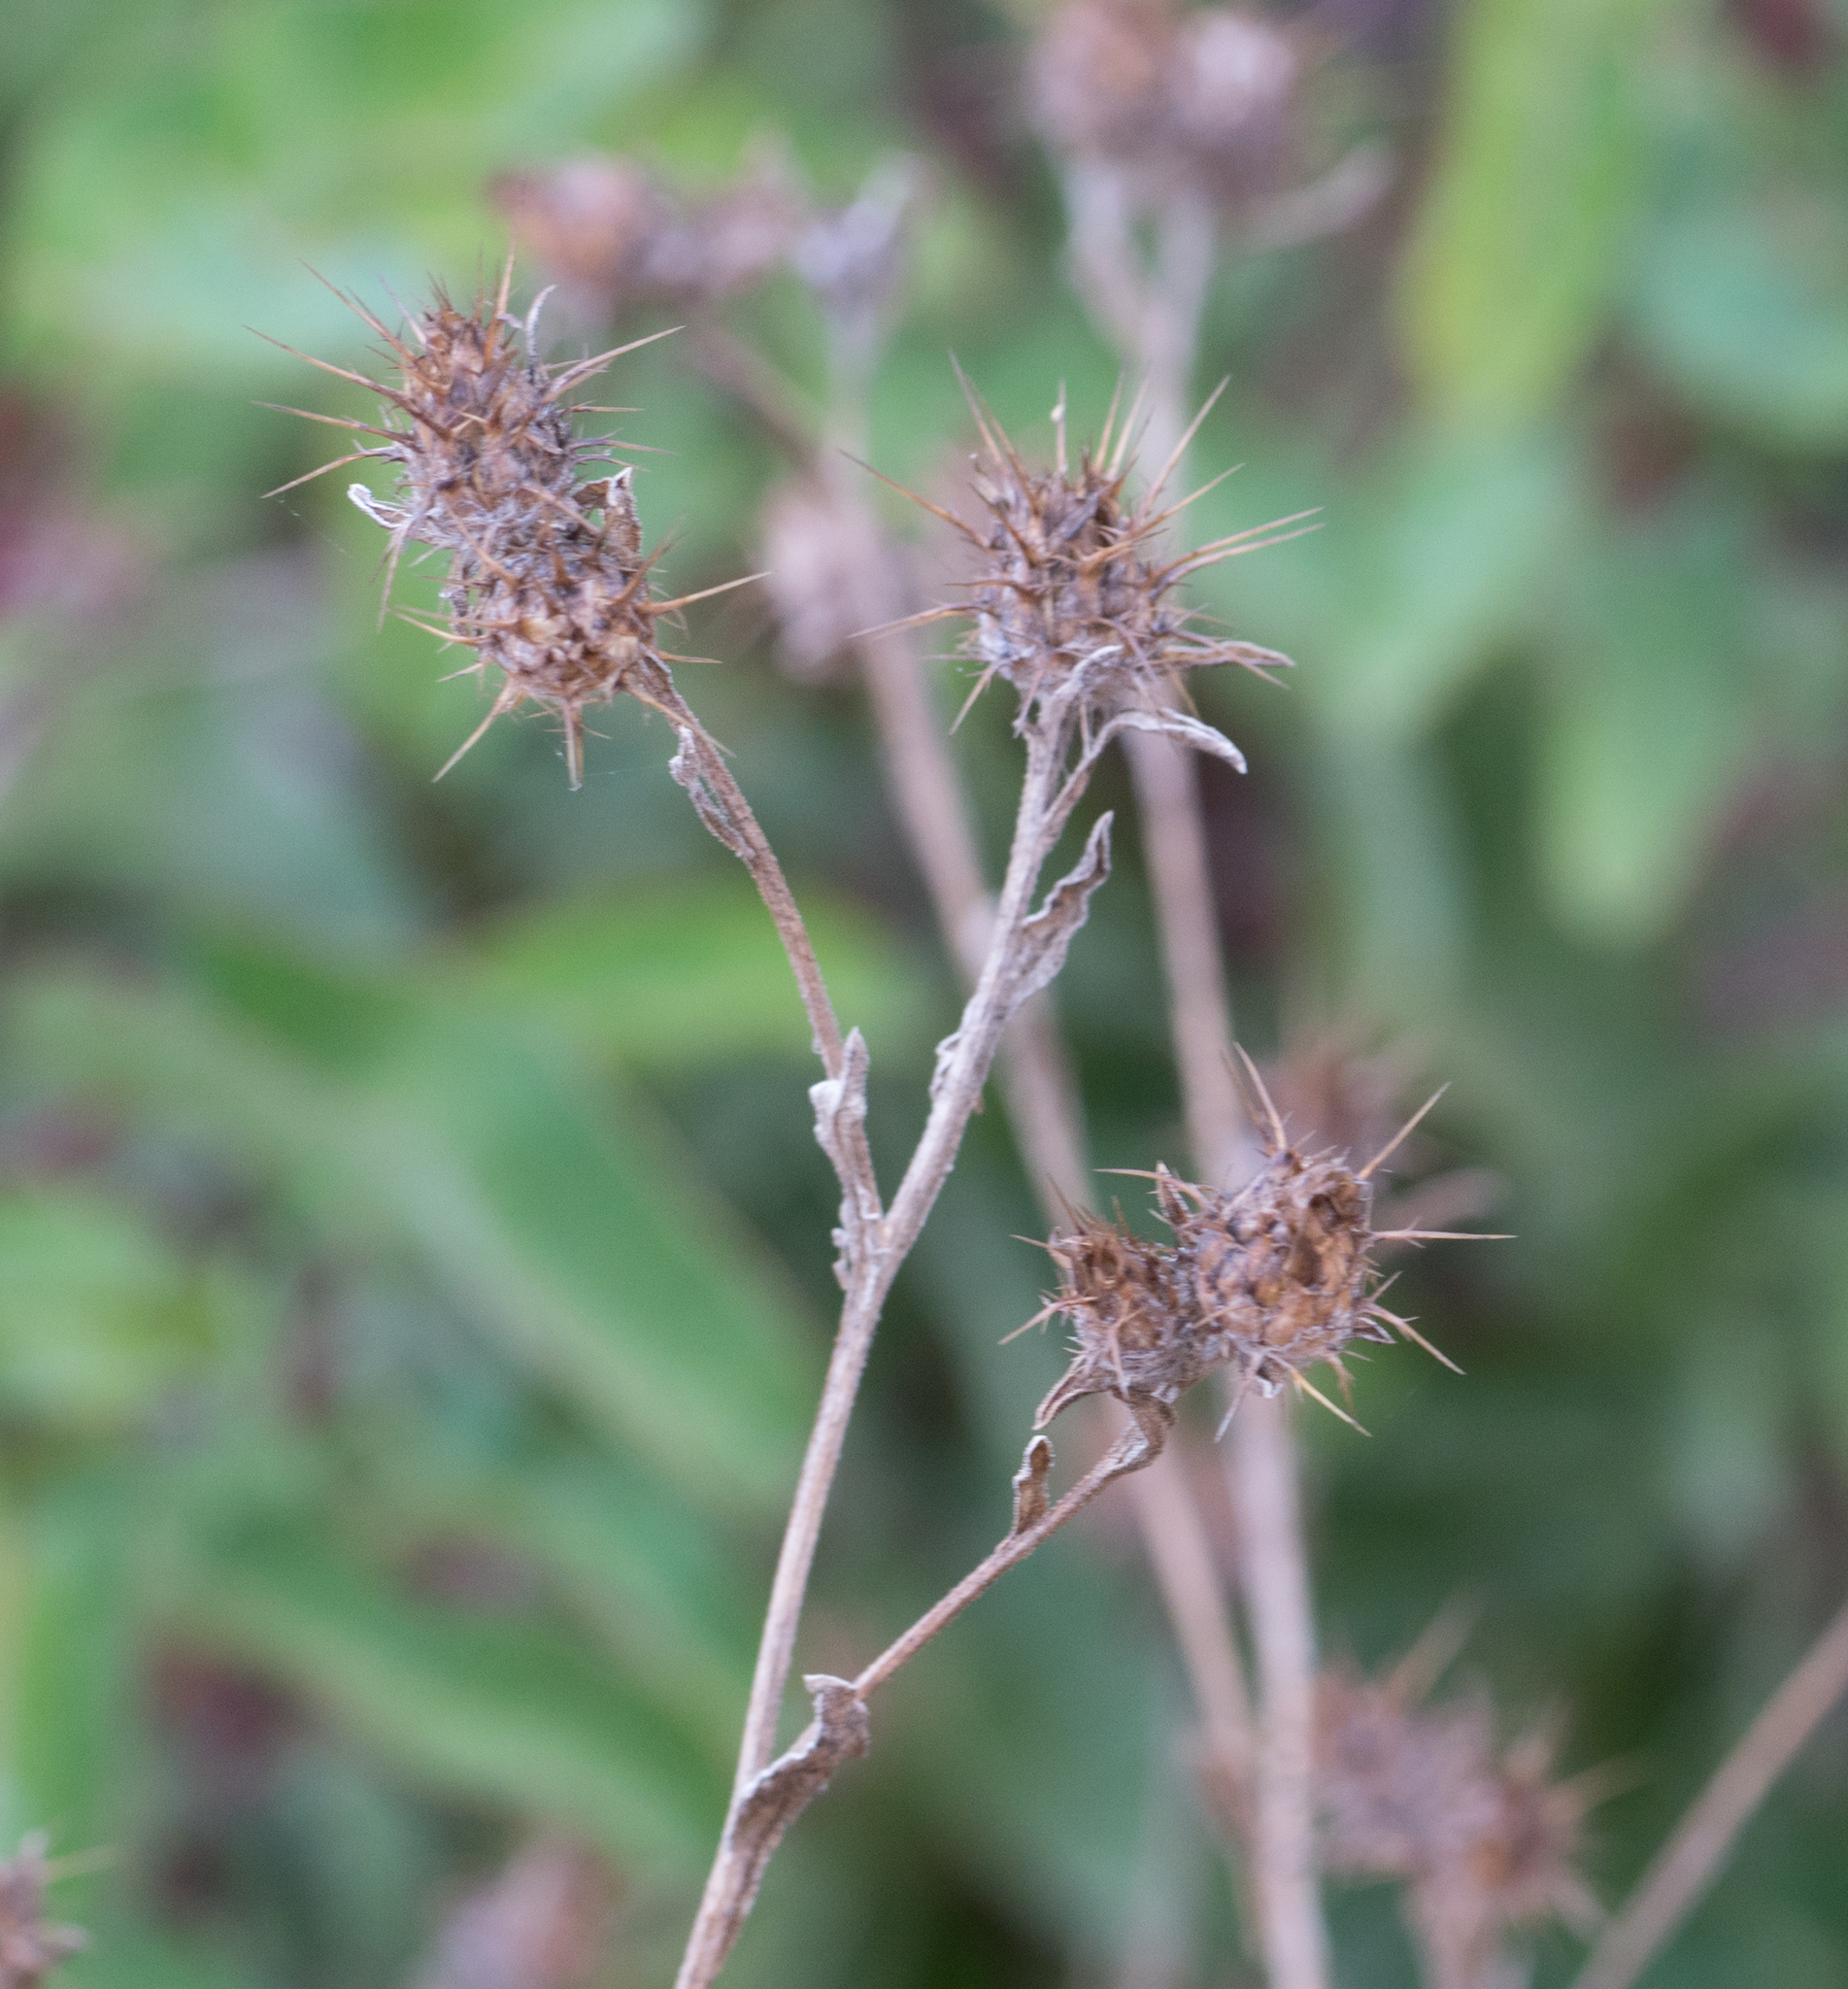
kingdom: Plantae
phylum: Tracheophyta
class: Magnoliopsida
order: Asterales
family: Asteraceae
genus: Centaurea
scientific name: Centaurea melitensis
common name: Maltese star-thistle
